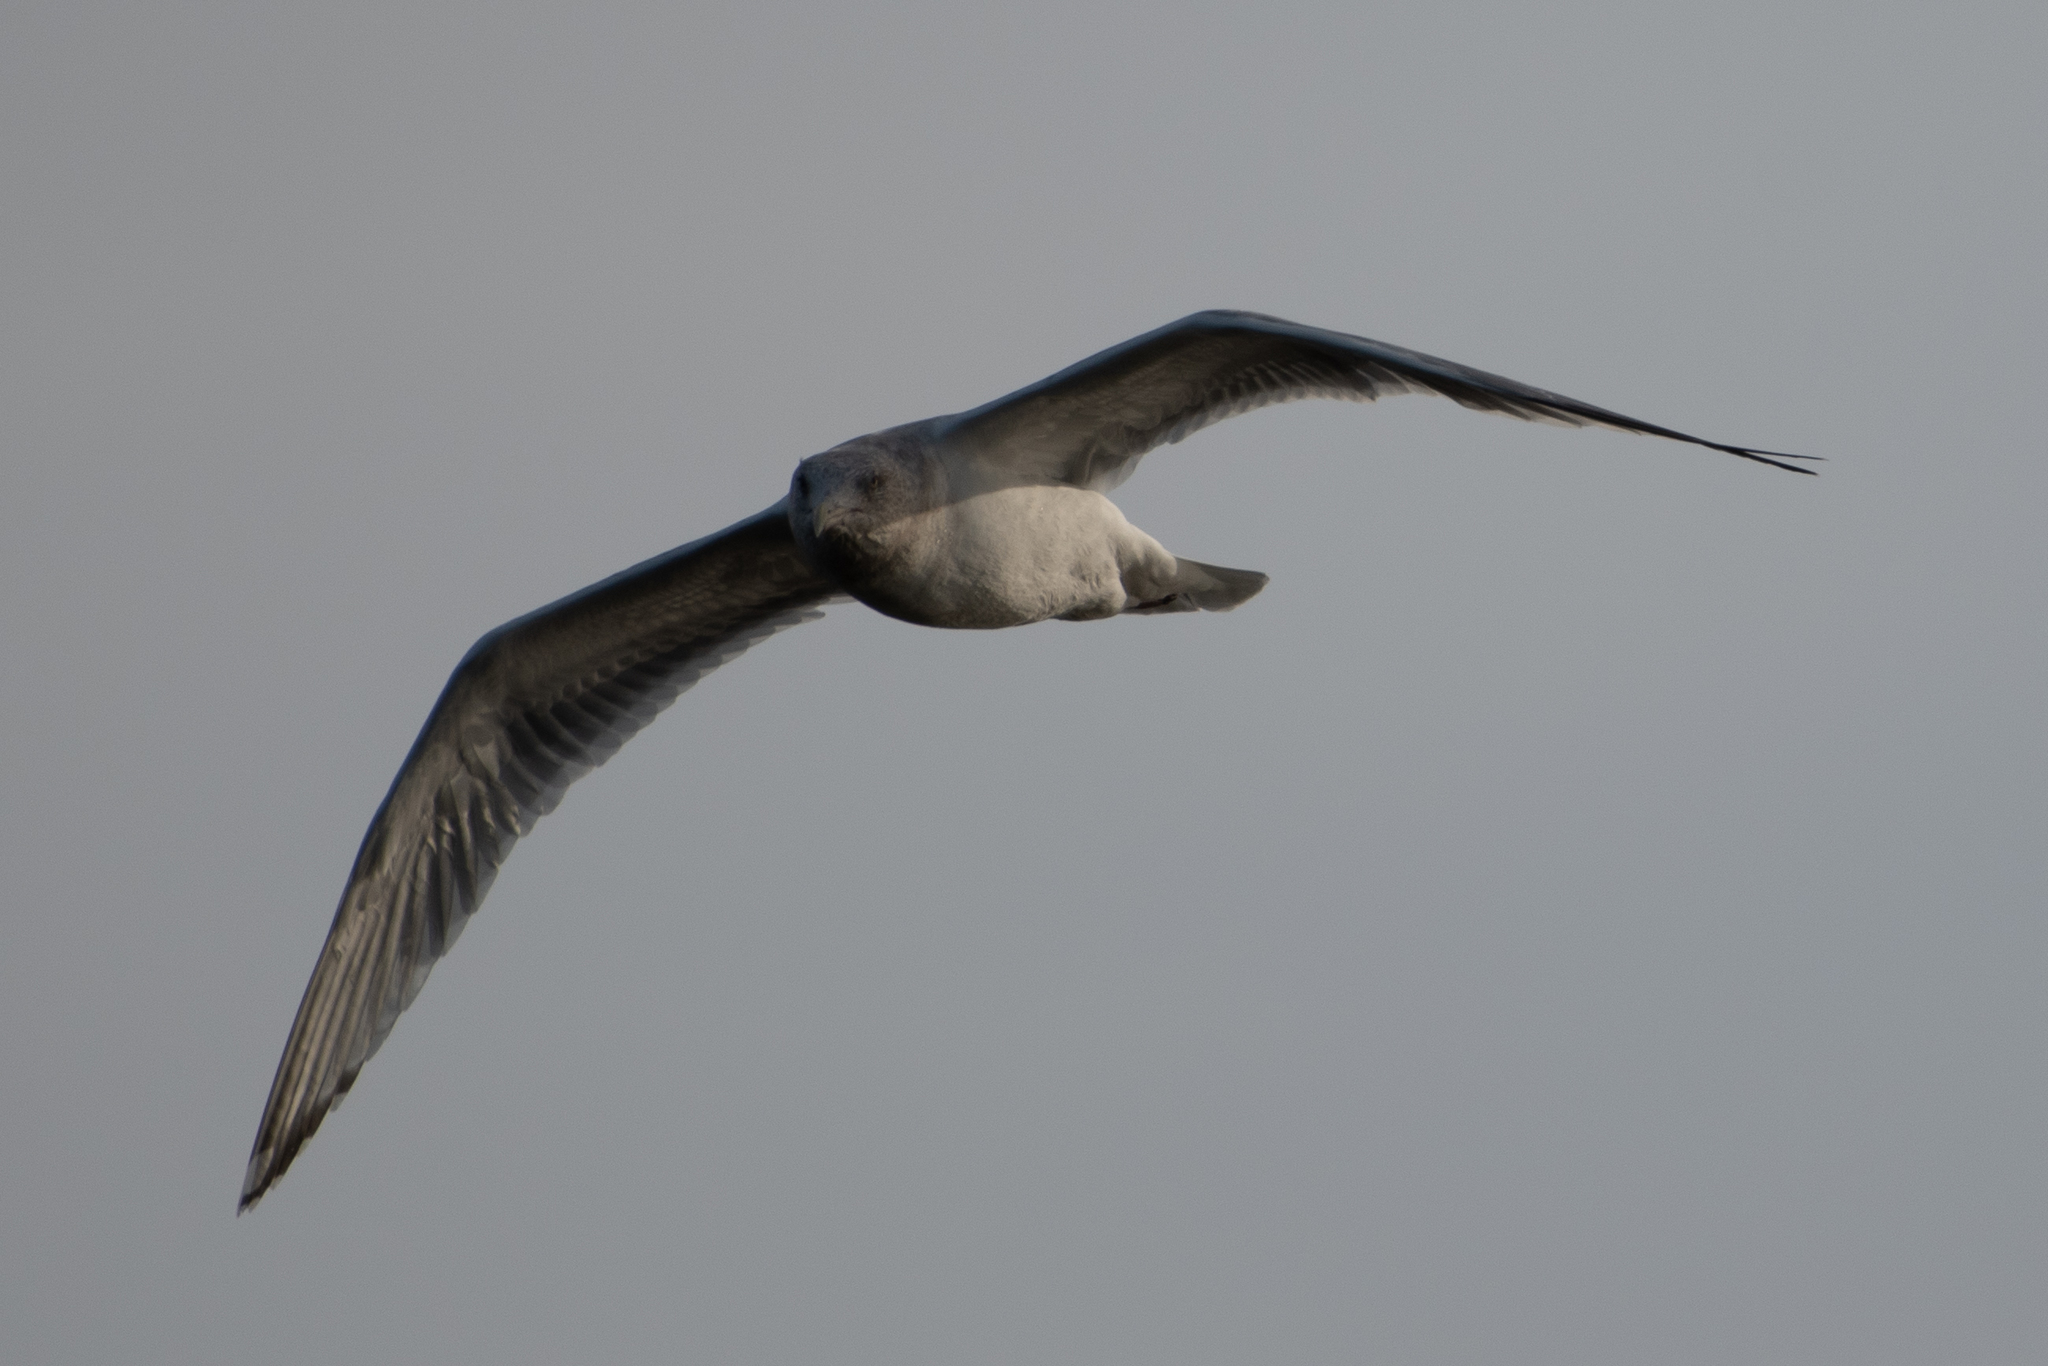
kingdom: Animalia
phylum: Chordata
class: Aves
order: Charadriiformes
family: Laridae
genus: Larus
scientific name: Larus argentatus
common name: Herring gull
